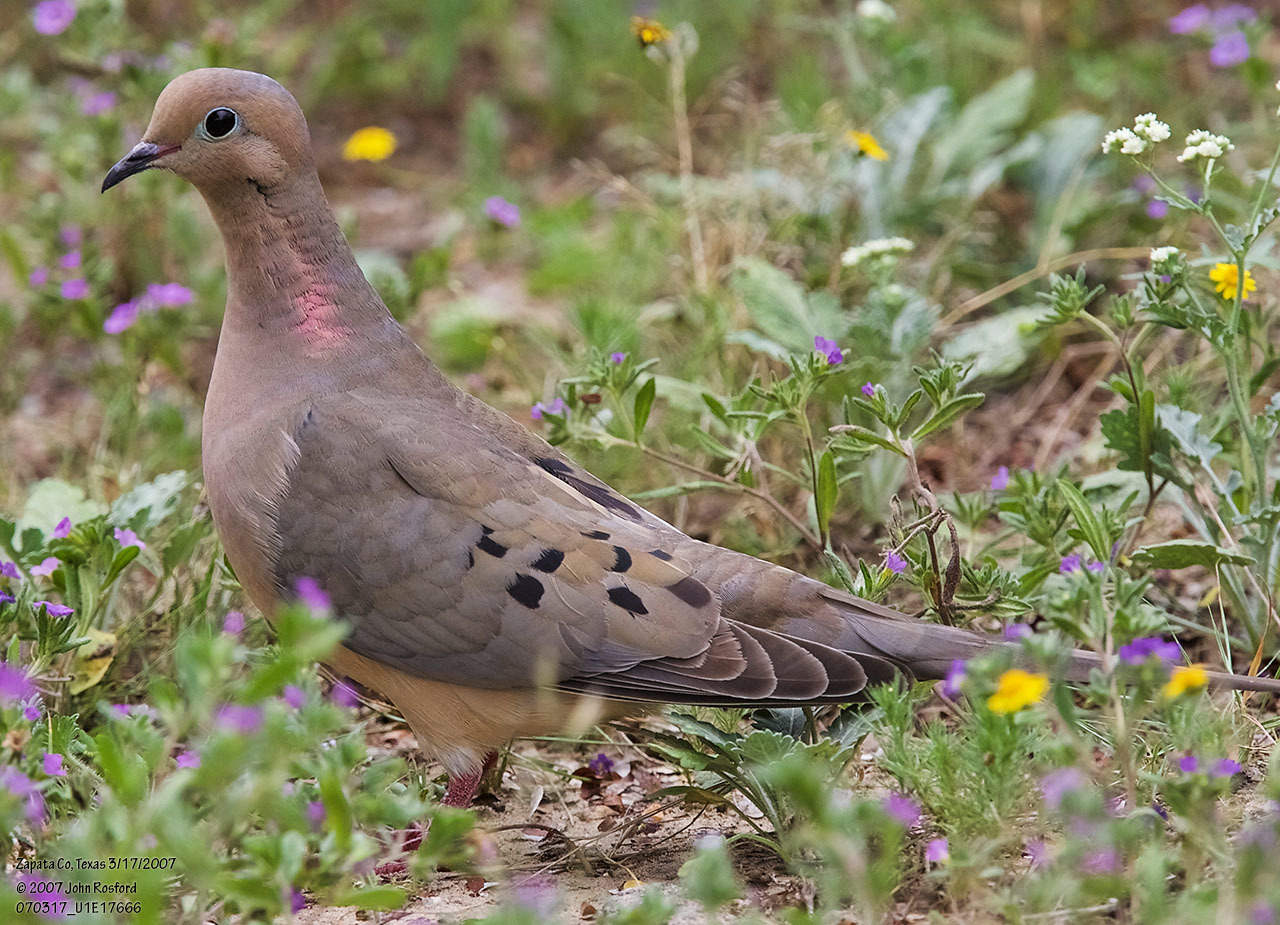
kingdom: Animalia
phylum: Chordata
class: Aves
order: Columbiformes
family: Columbidae
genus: Zenaida
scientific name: Zenaida macroura
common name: Mourning dove
